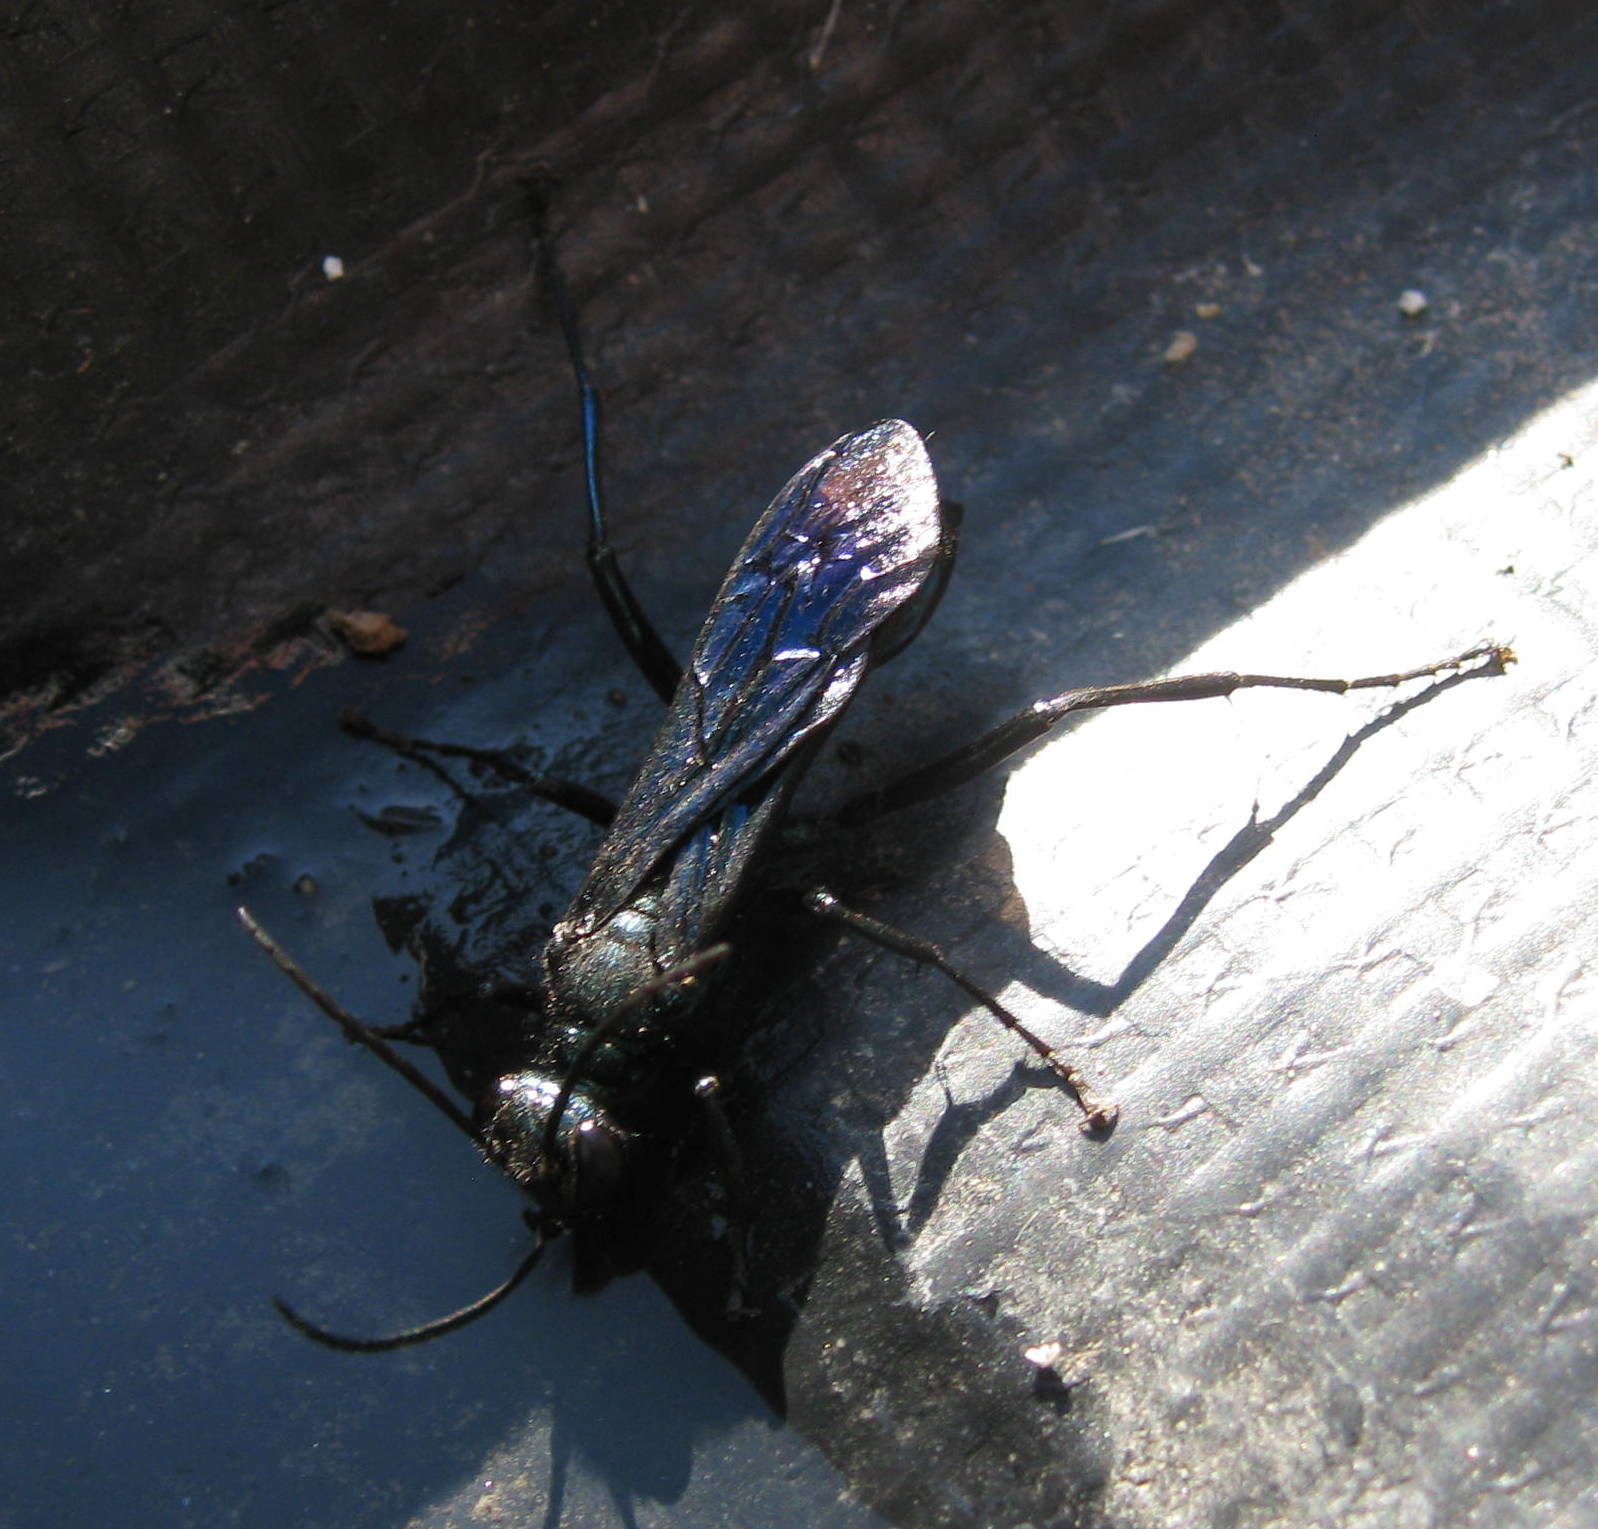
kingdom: Animalia
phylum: Arthropoda
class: Insecta
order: Hymenoptera
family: Sphecidae
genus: Chalybion
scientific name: Chalybion californicum
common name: Mud dauber
